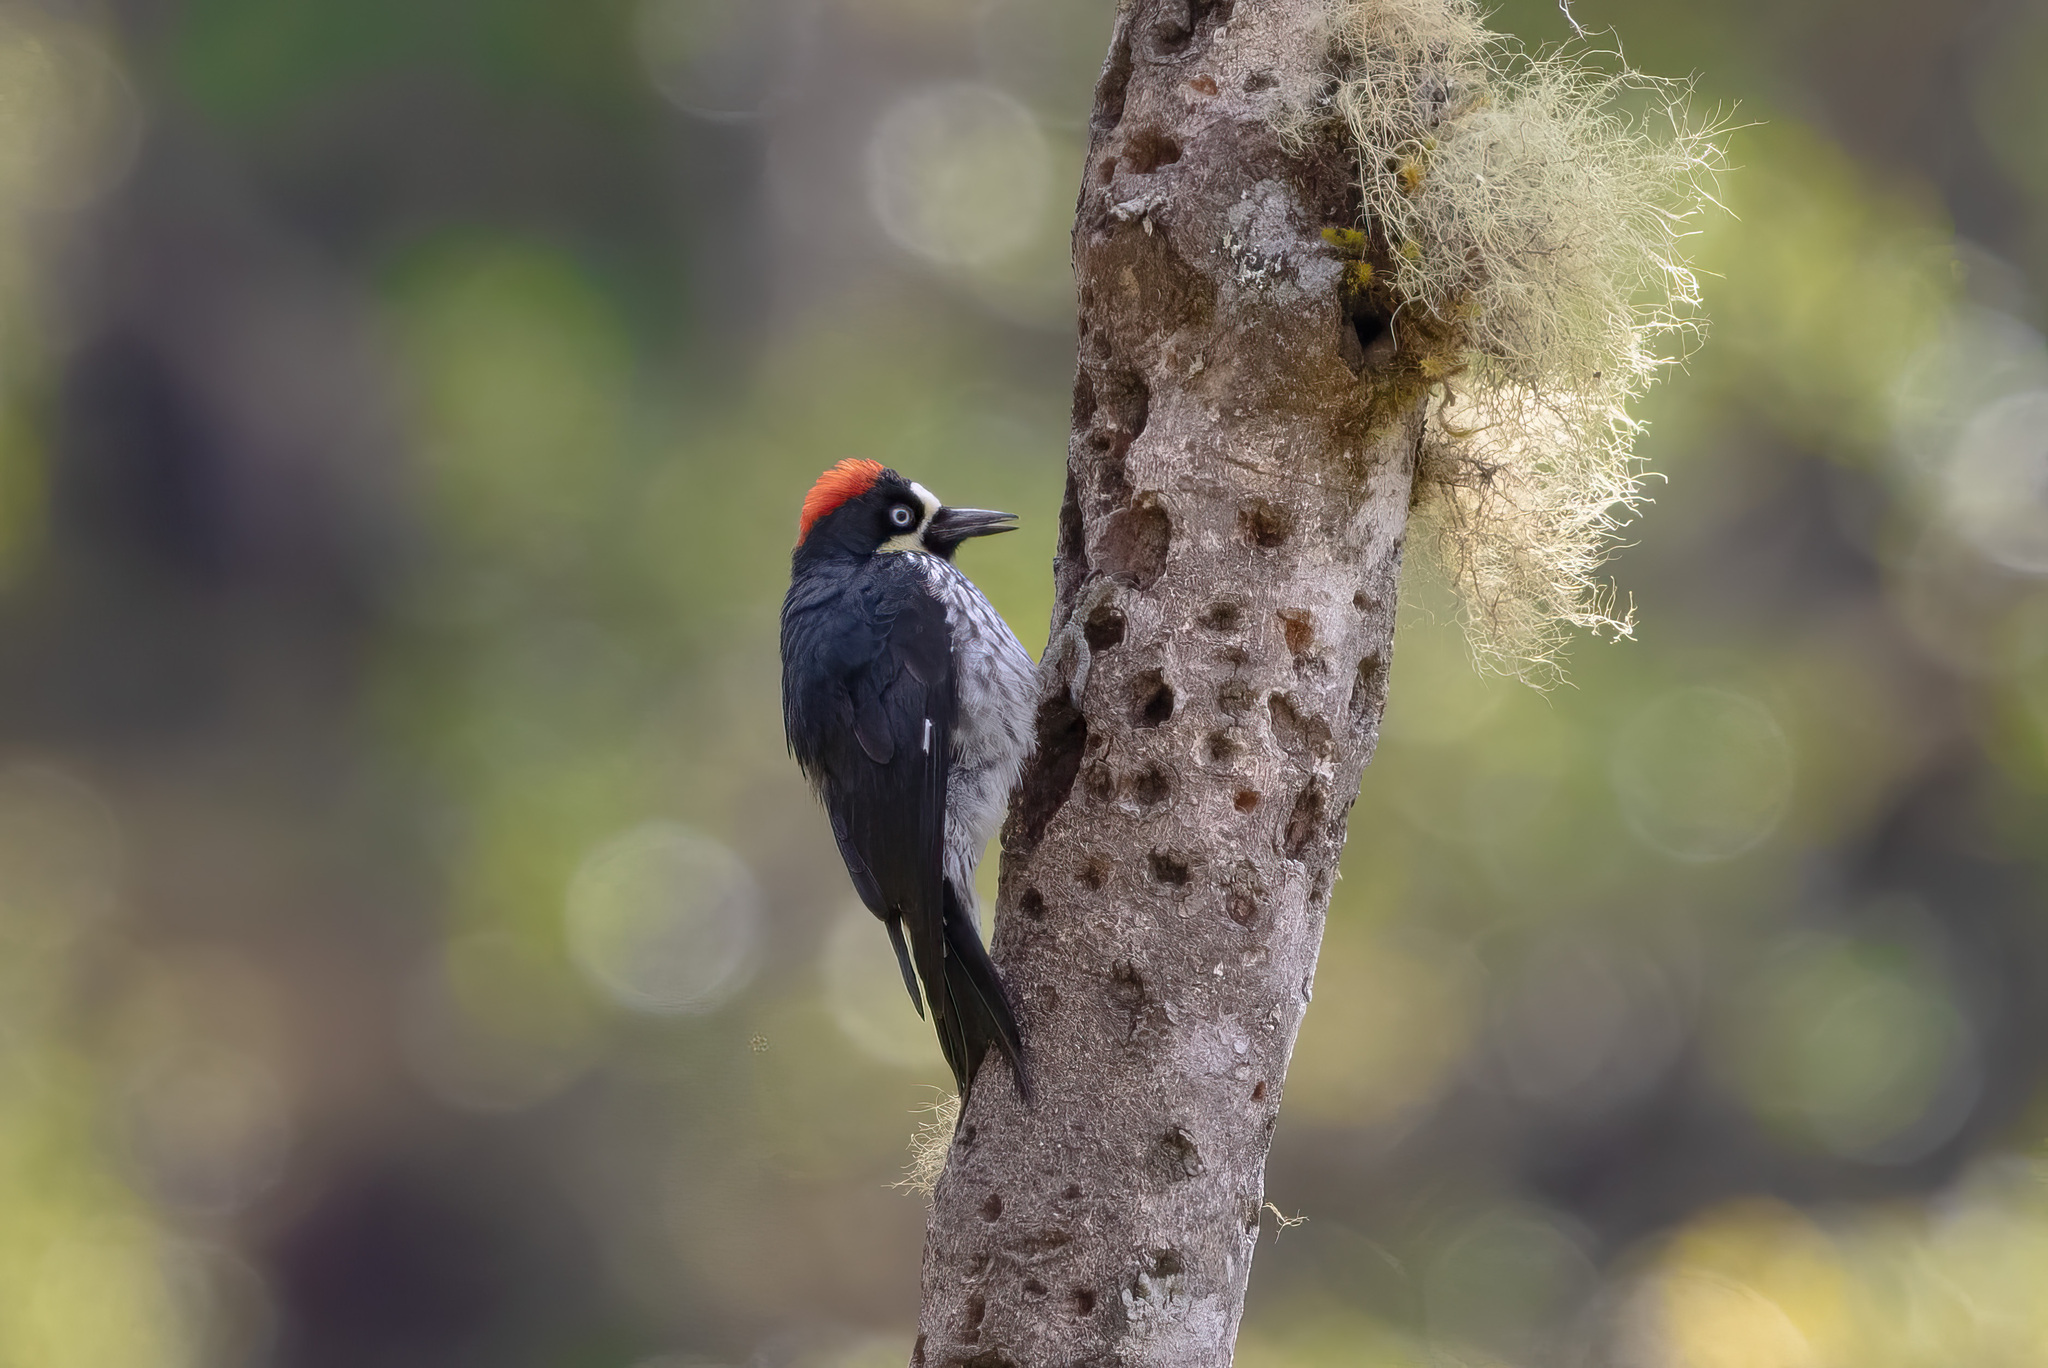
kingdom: Animalia
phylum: Chordata
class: Aves
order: Piciformes
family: Picidae
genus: Melanerpes
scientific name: Melanerpes formicivorus
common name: Acorn woodpecker
